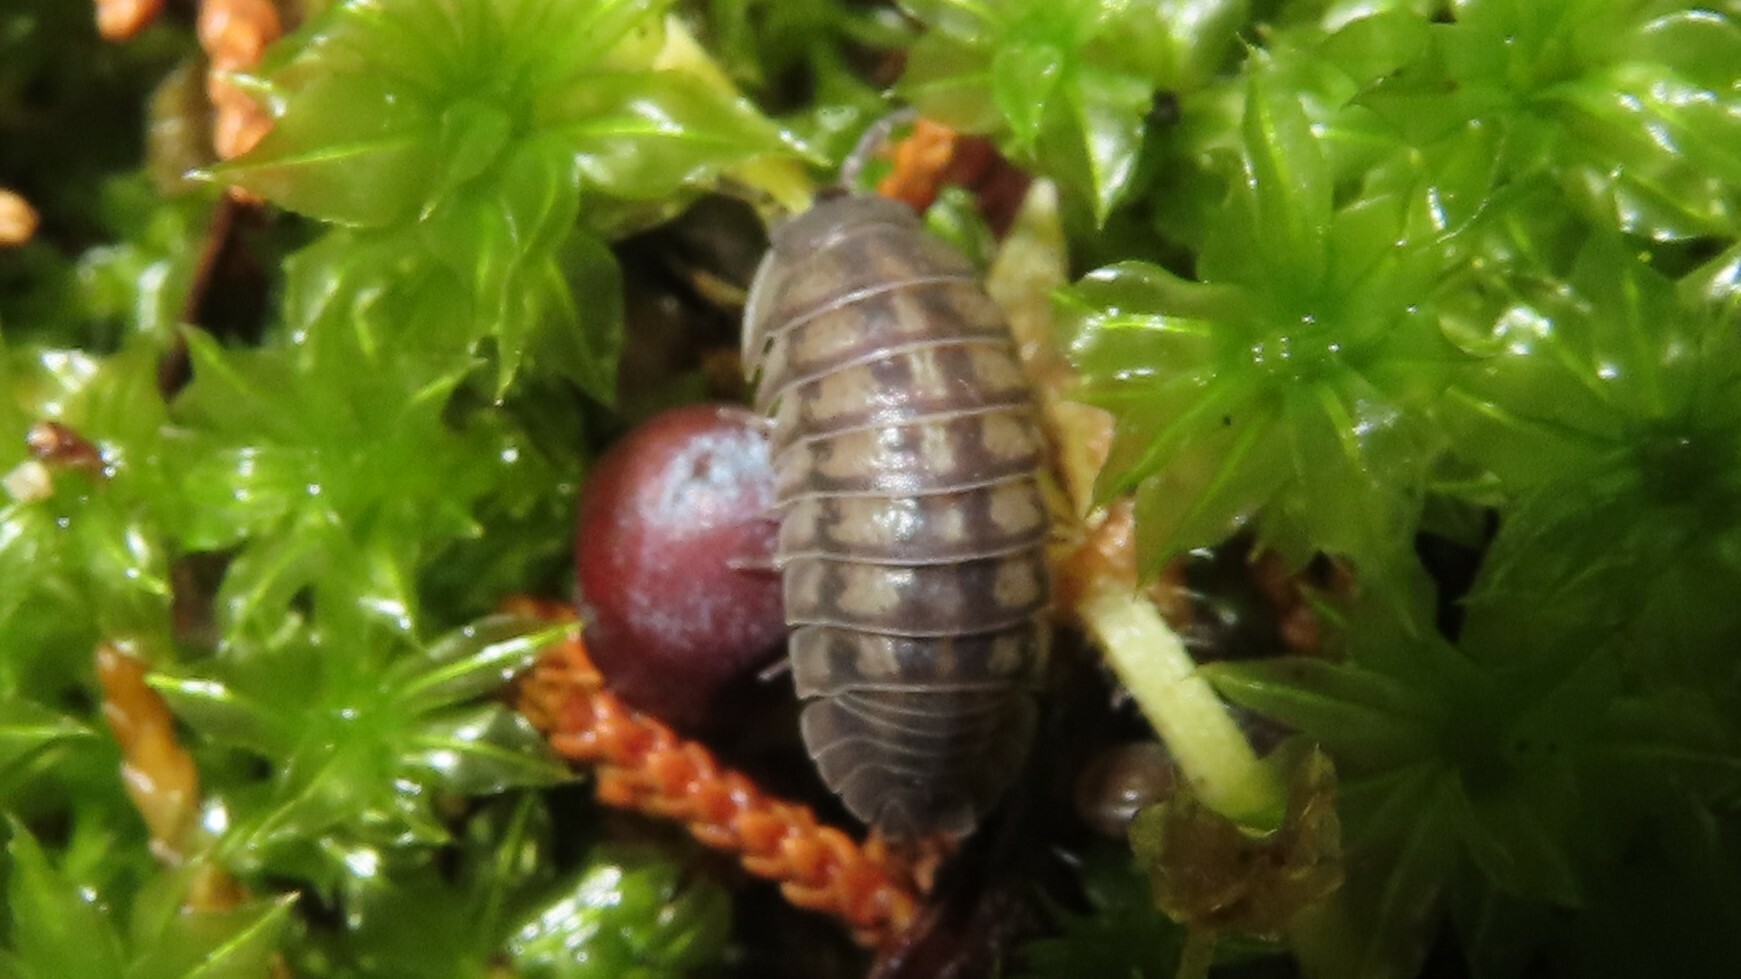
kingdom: Animalia
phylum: Arthropoda
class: Malacostraca
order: Isopoda
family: Armadillidiidae
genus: Armadillidium
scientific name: Armadillidium nasatum
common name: Isopod
